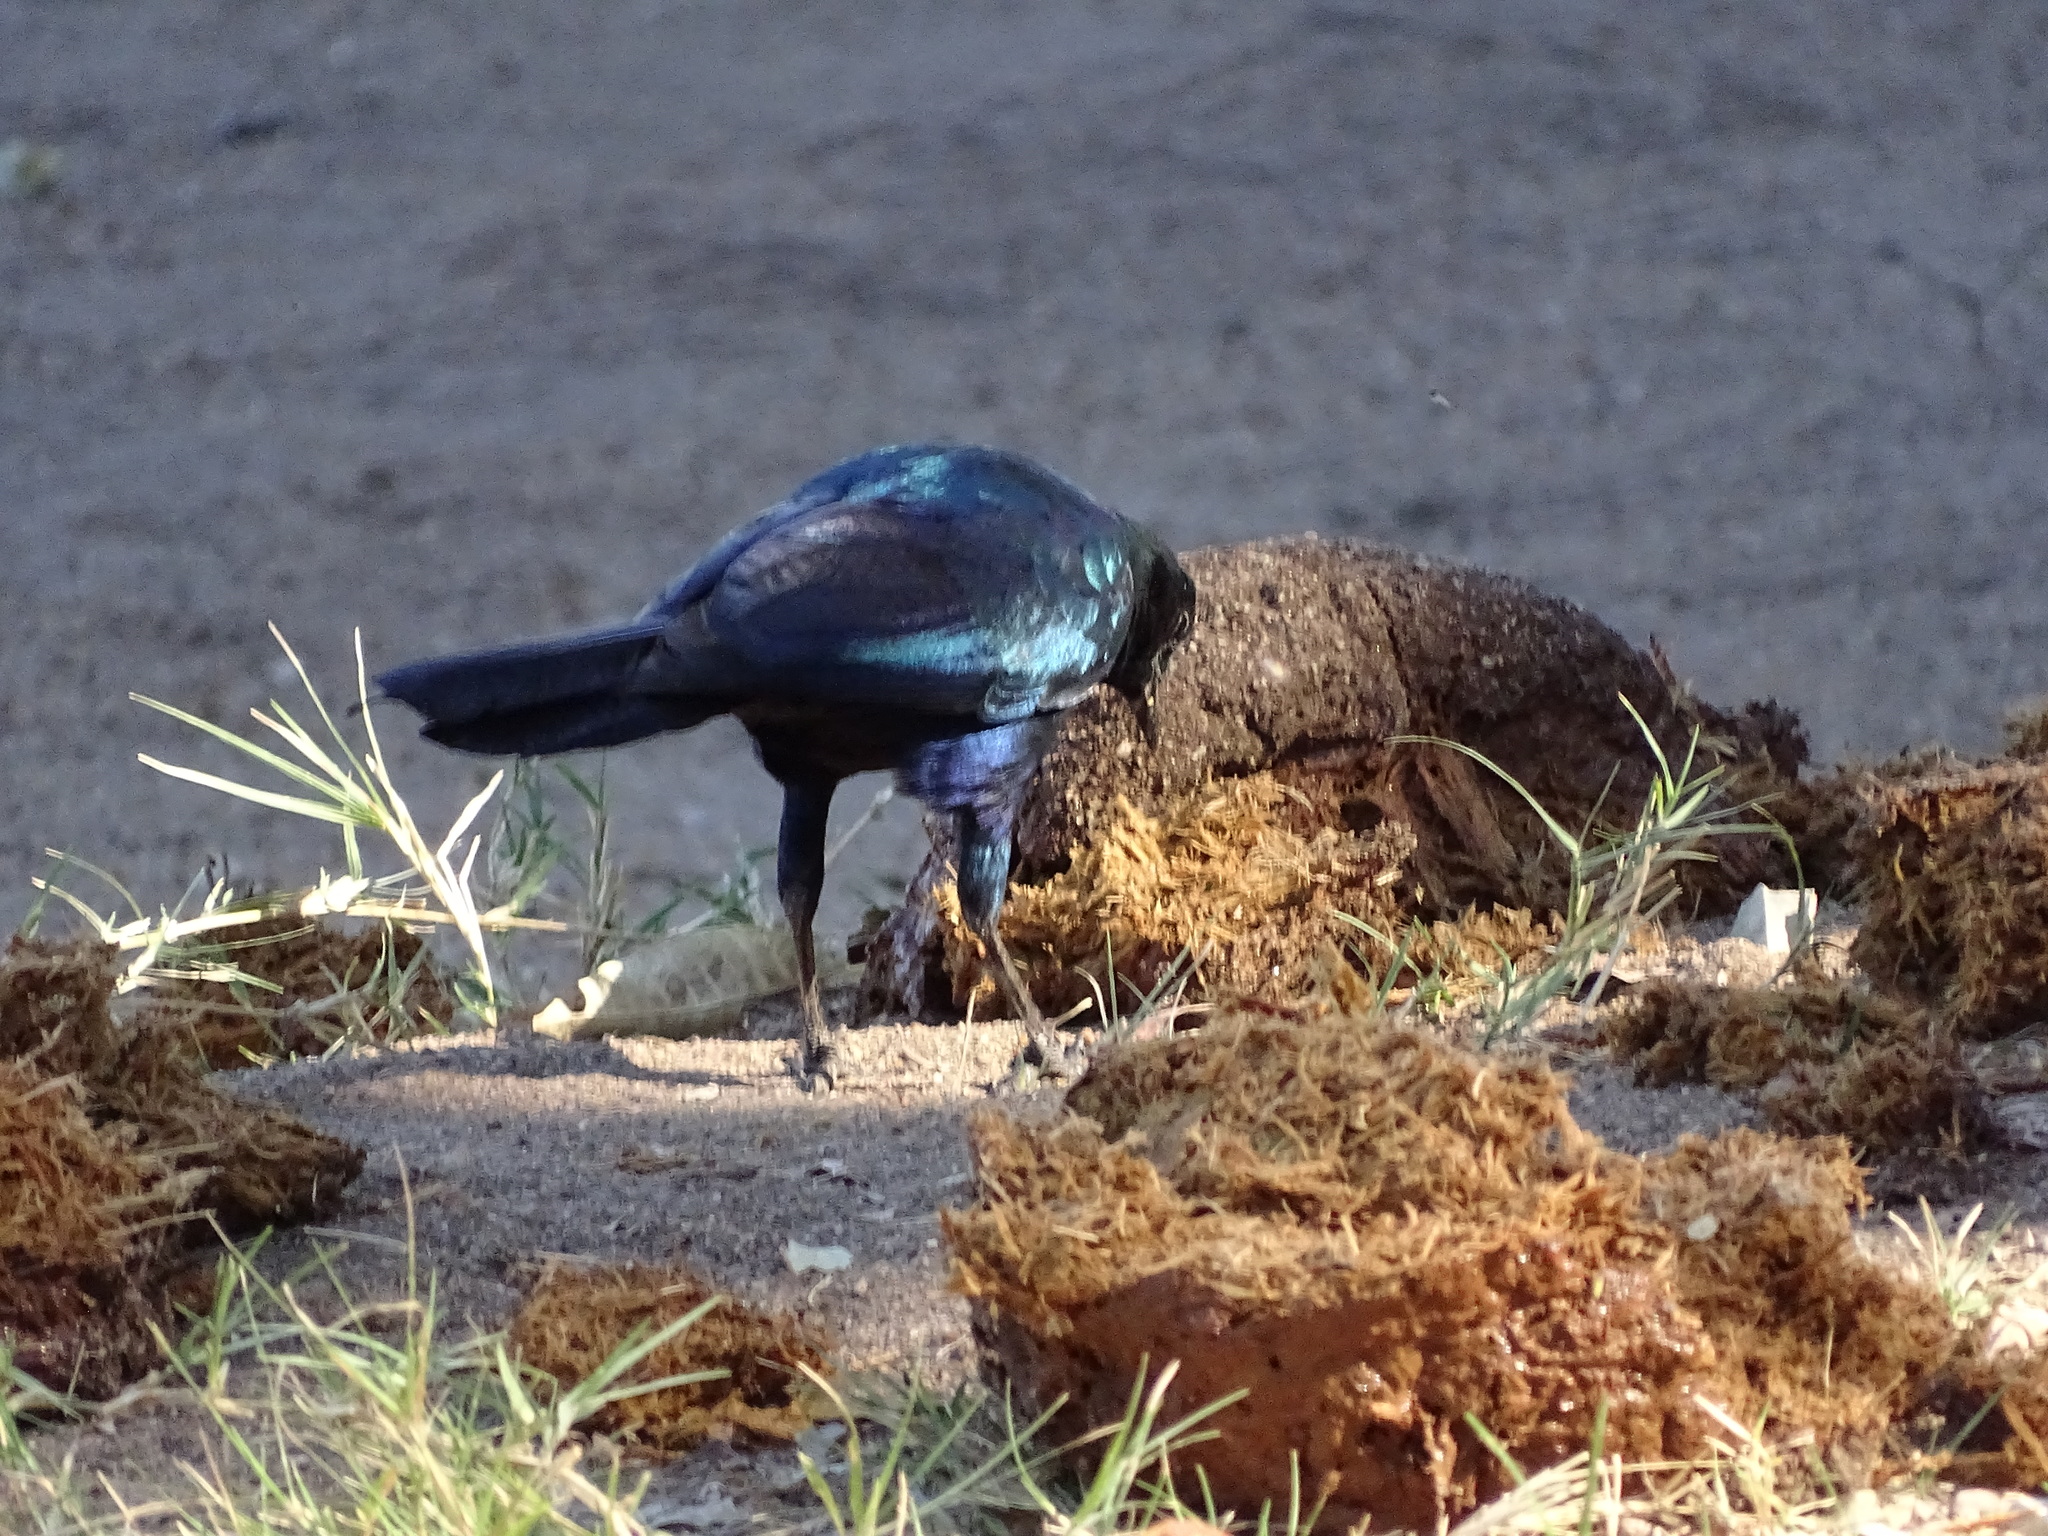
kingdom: Animalia
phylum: Chordata
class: Aves
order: Passeriformes
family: Sturnidae
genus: Lamprotornis
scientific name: Lamprotornis australis
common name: Burchell's starling
